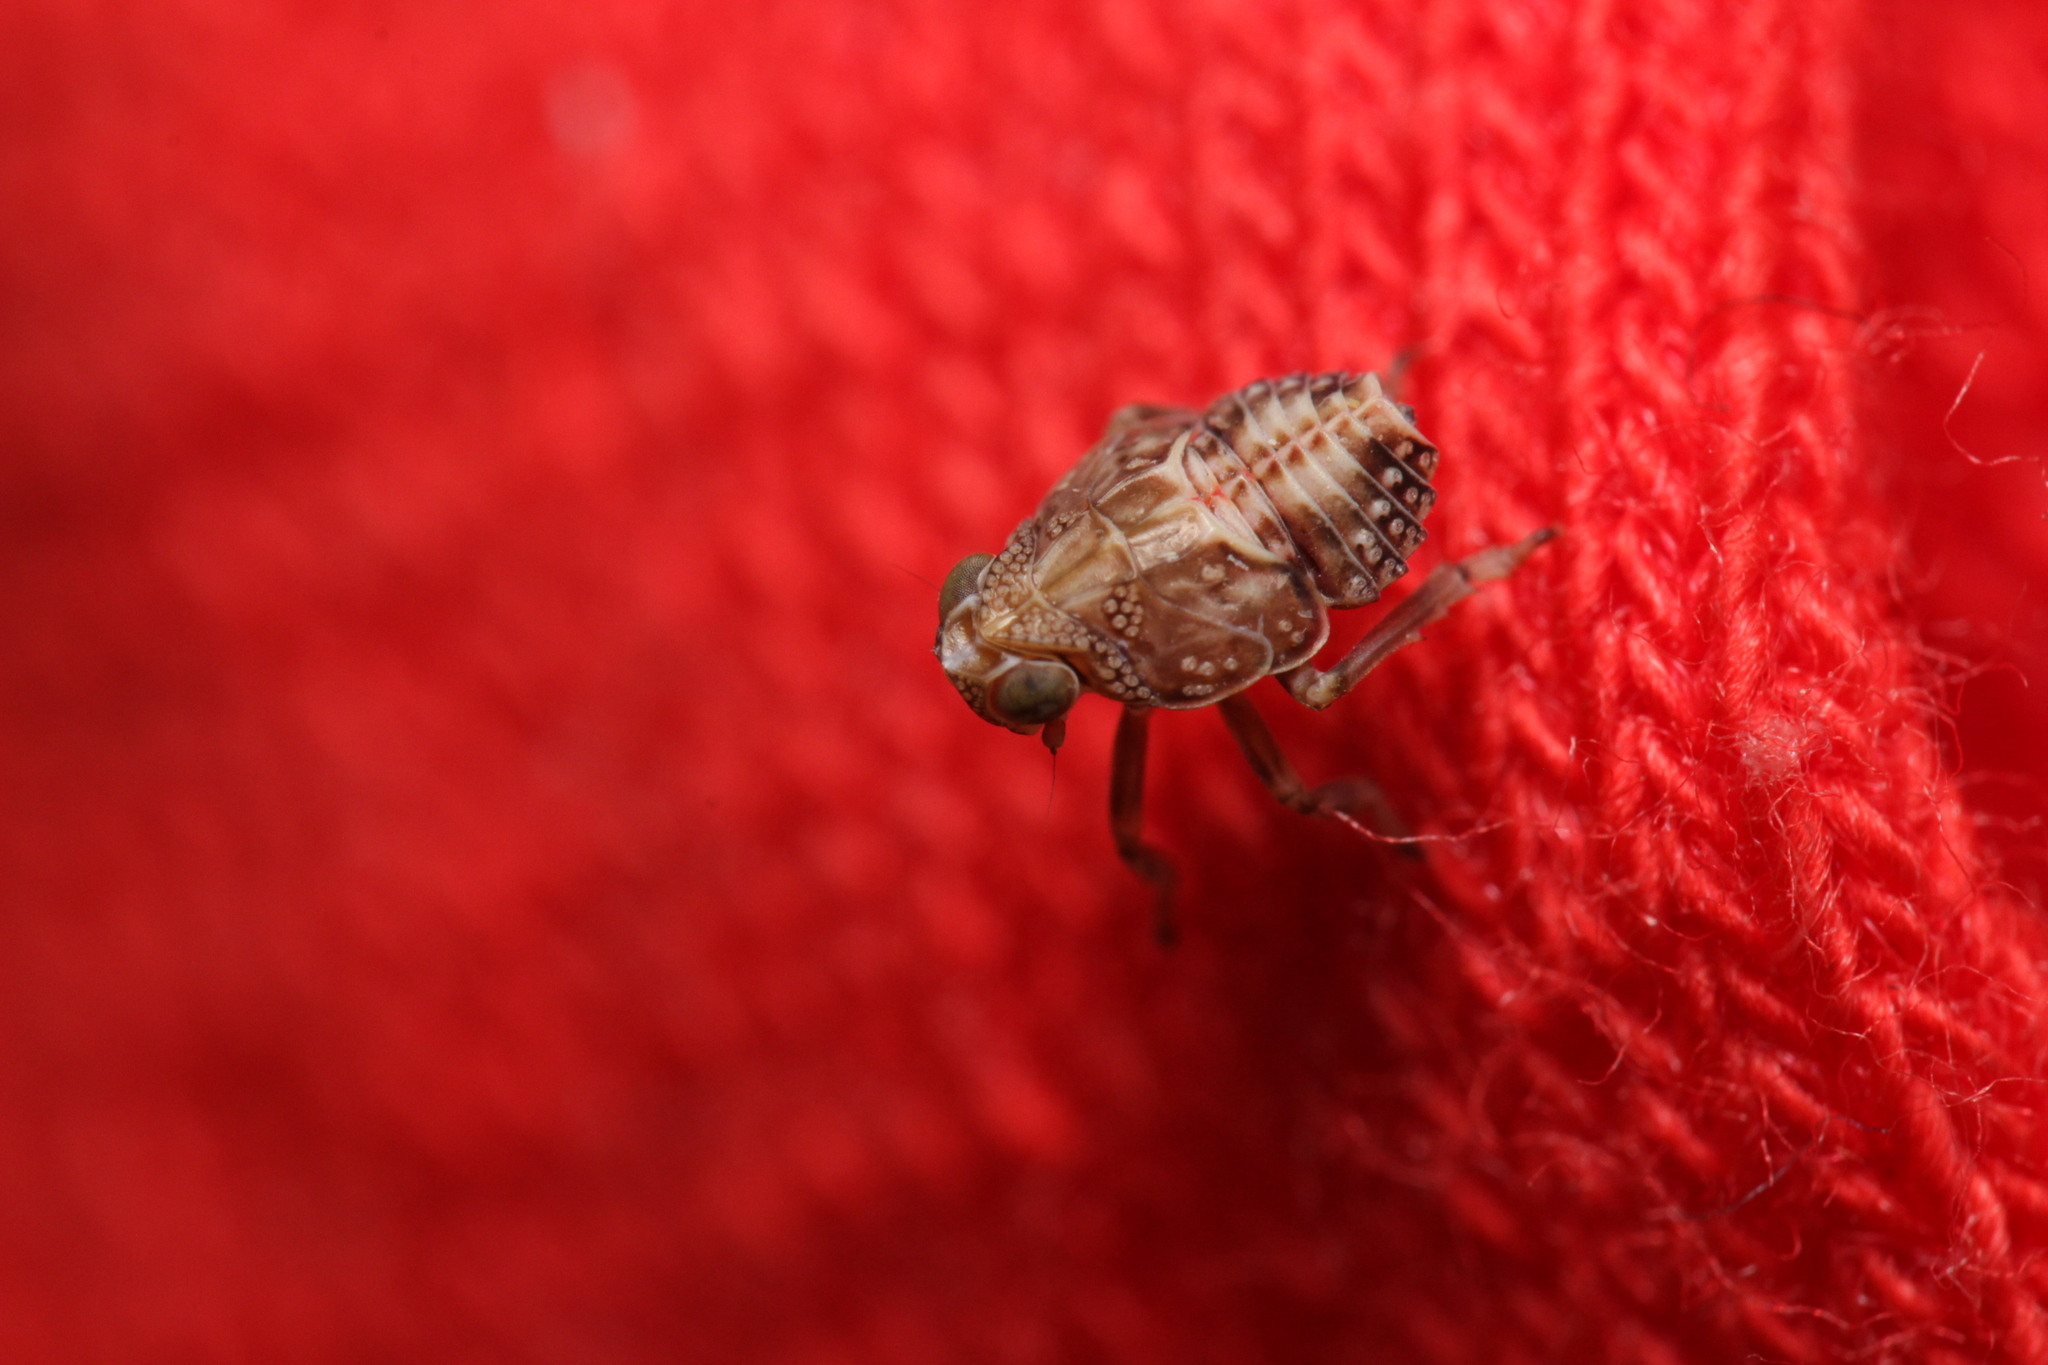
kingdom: Animalia
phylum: Arthropoda
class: Insecta
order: Hemiptera
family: Issidae
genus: Issus
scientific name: Issus coleoptratus
